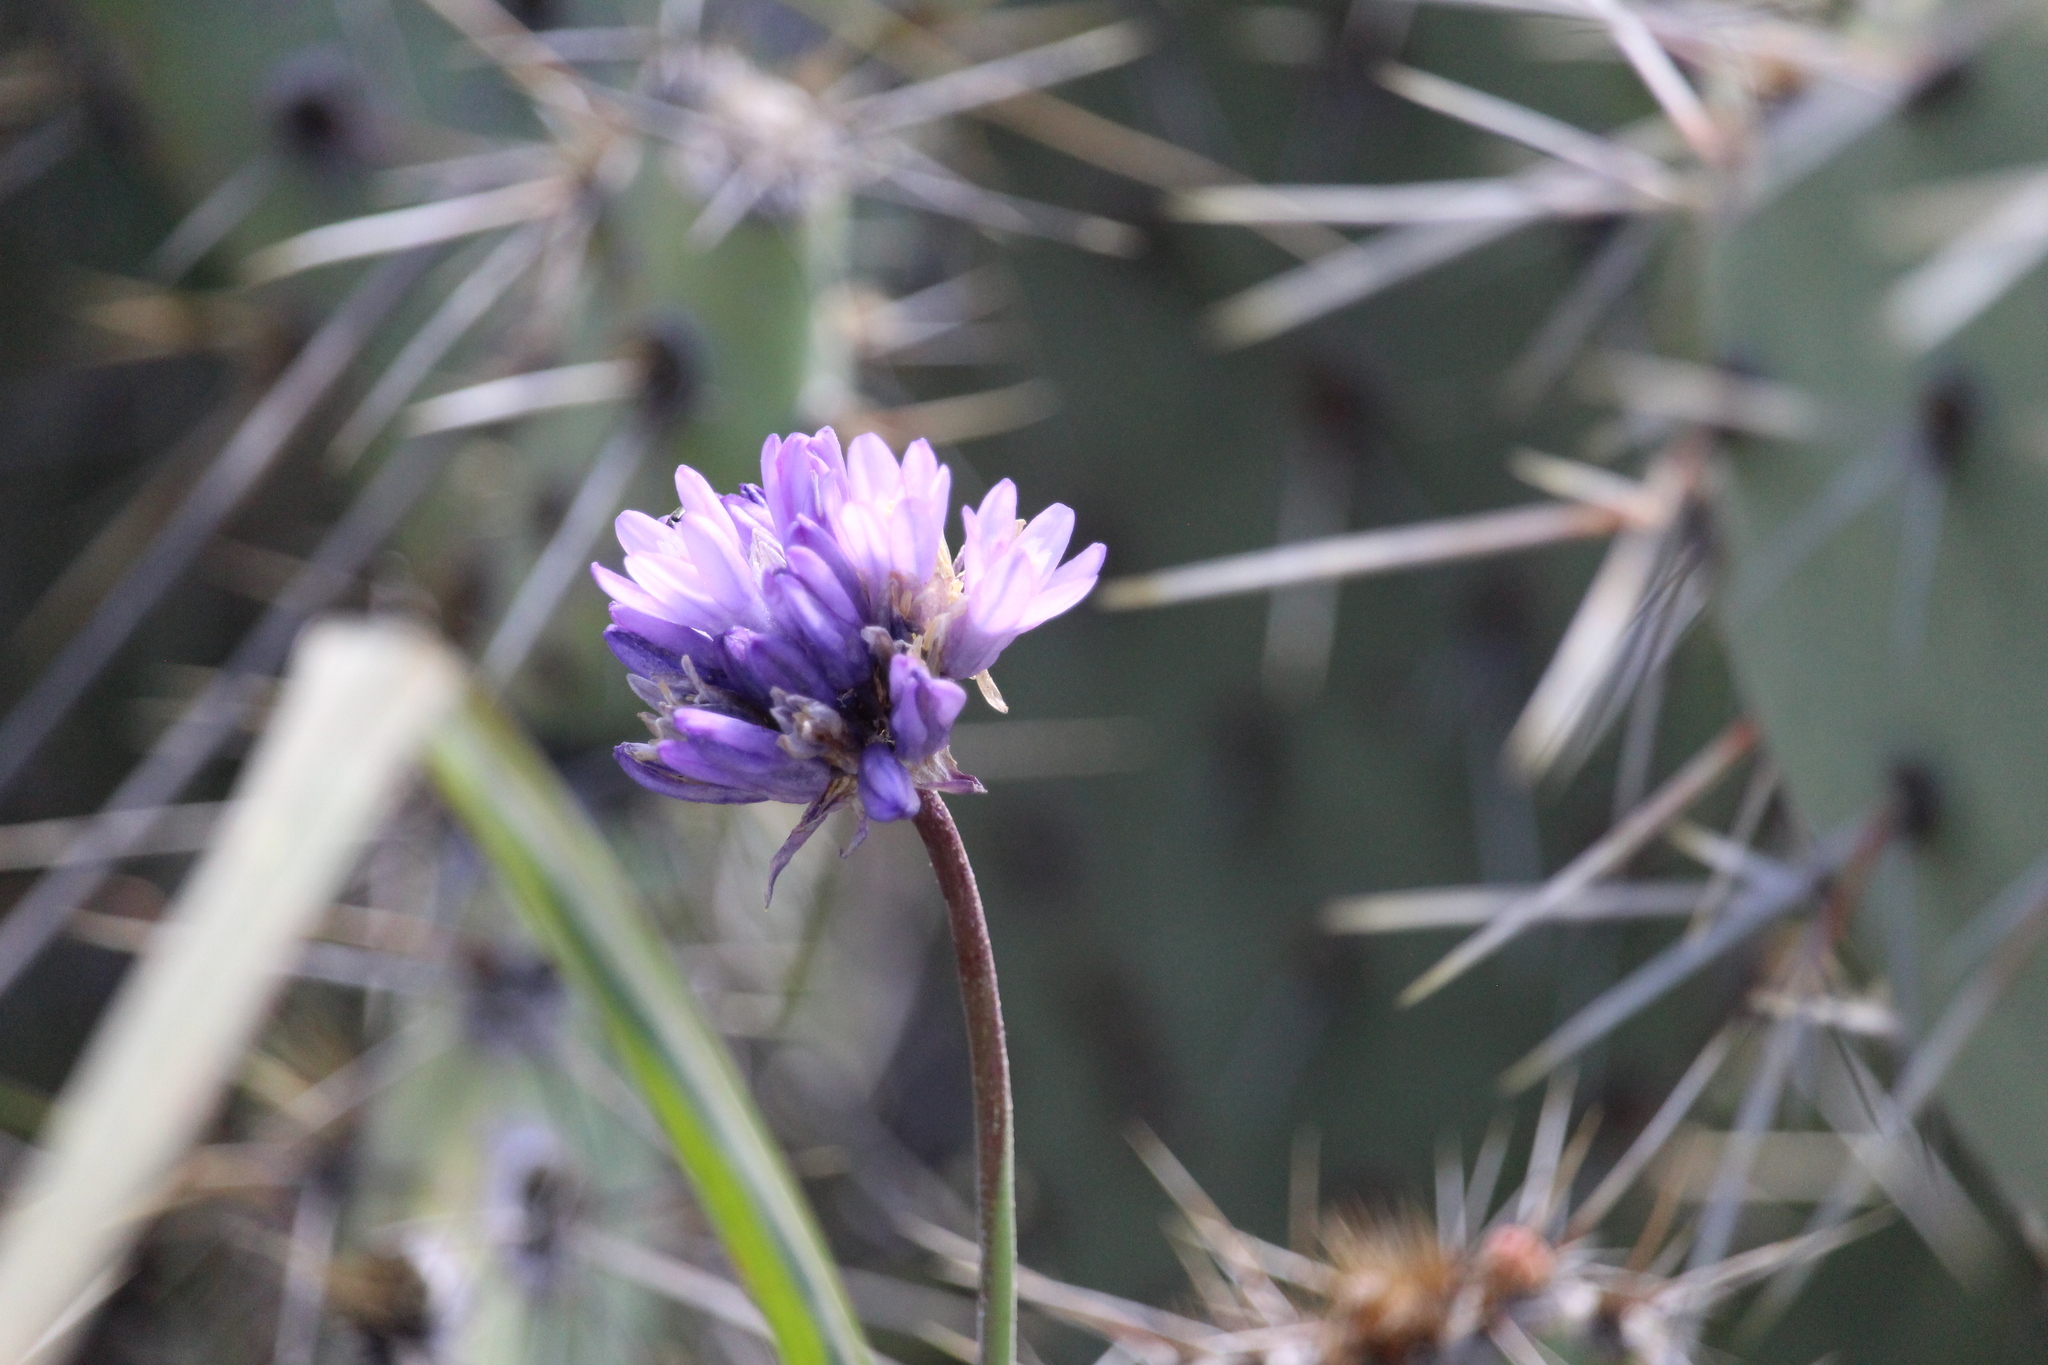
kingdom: Plantae
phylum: Tracheophyta
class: Liliopsida
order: Asparagales
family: Asparagaceae
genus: Dipterostemon
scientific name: Dipterostemon capitatus
